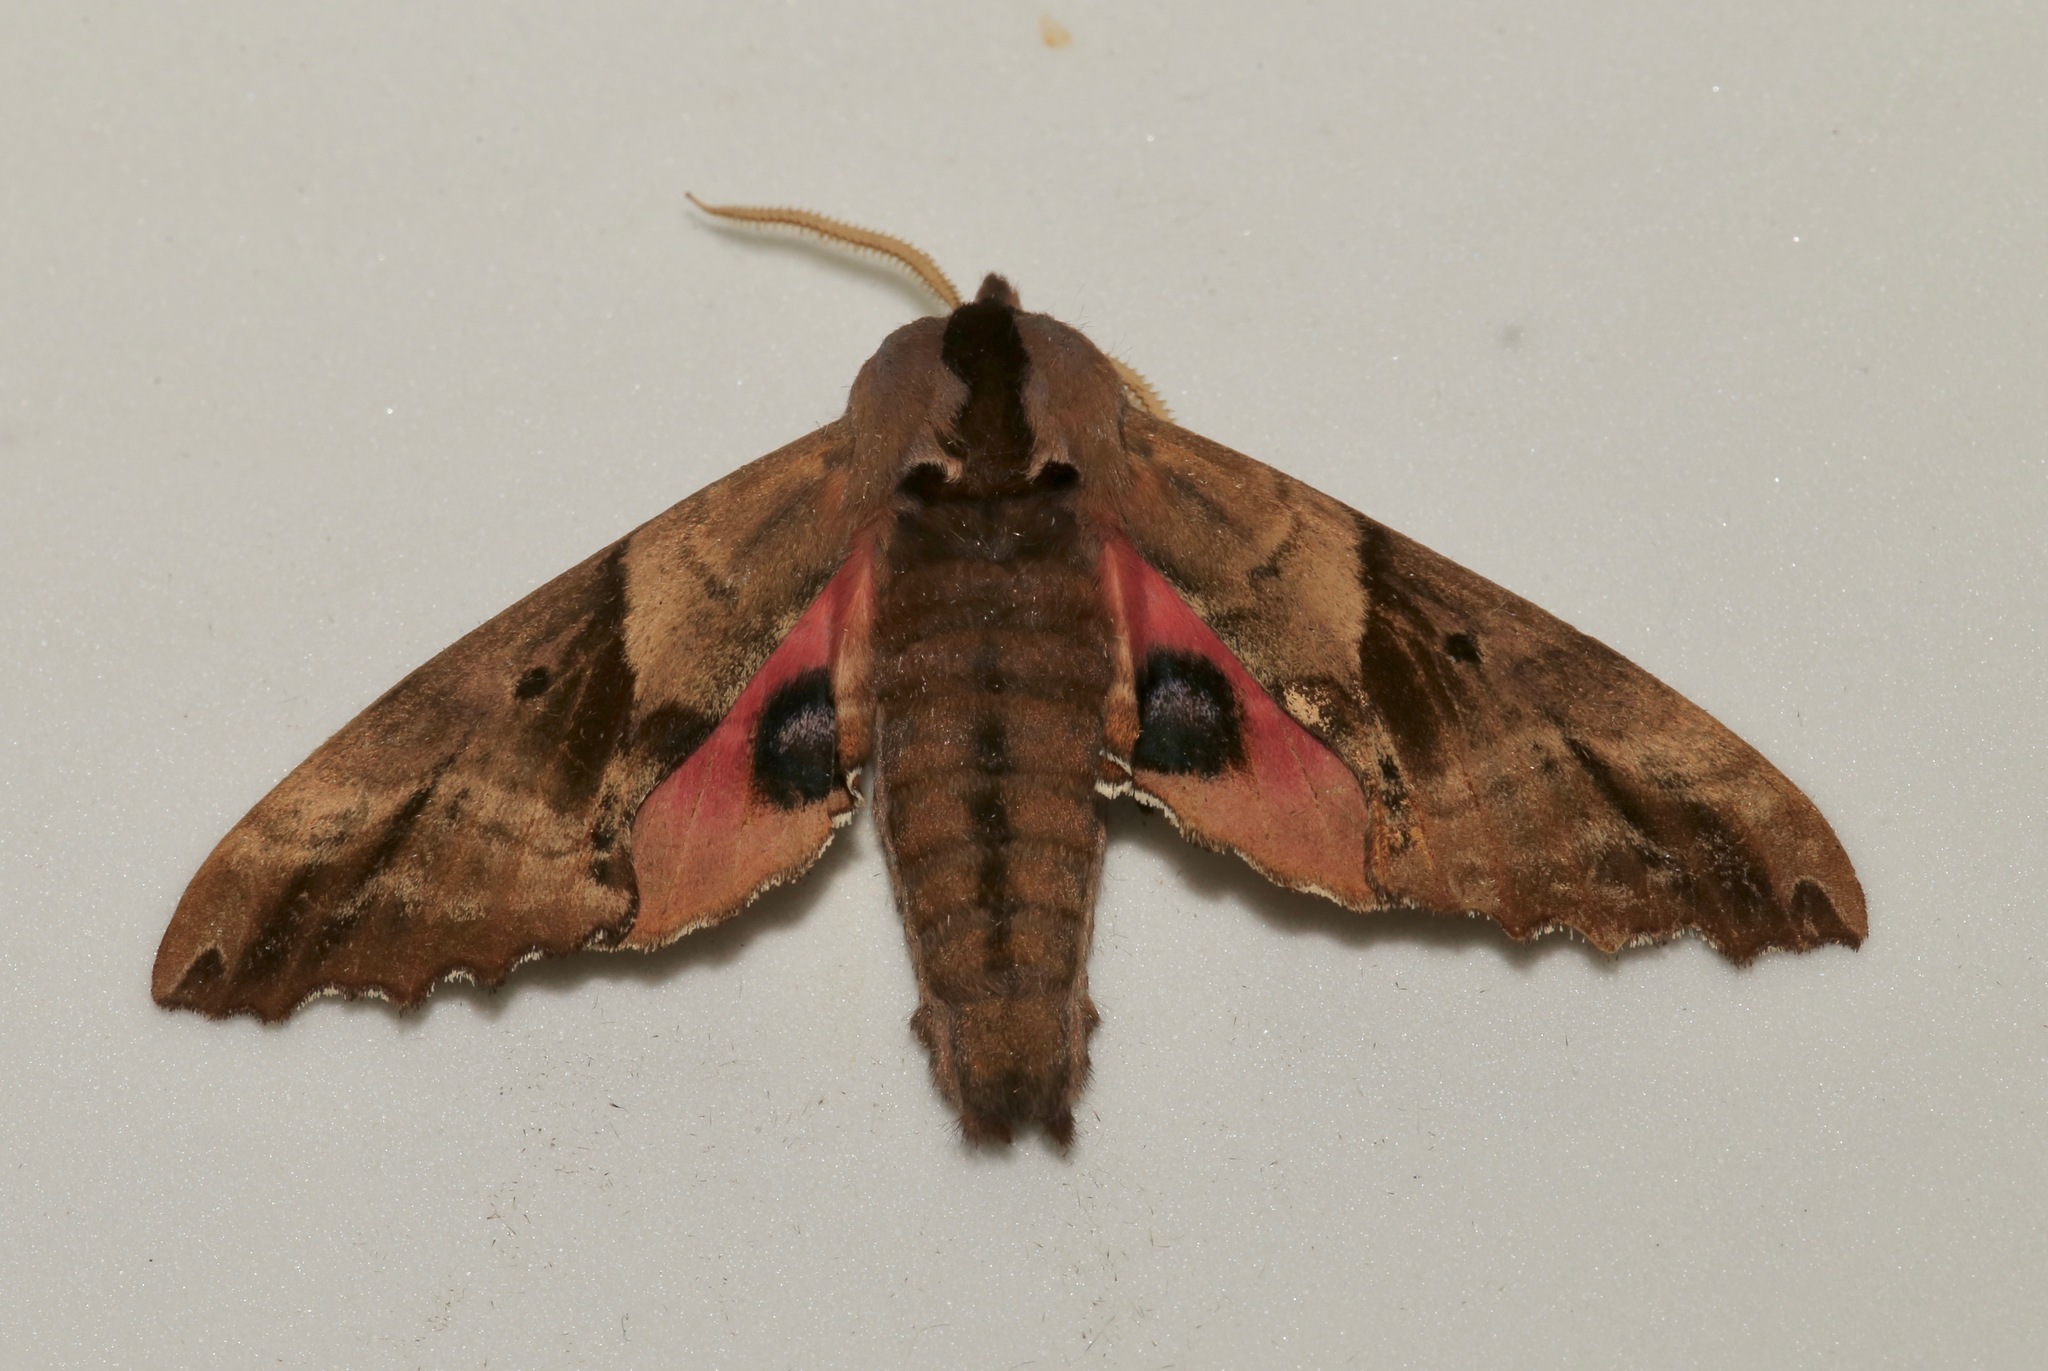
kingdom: Animalia
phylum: Arthropoda
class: Insecta
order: Lepidoptera
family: Sphingidae
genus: Paonias
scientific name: Paonias excaecata
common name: Blind-eyed sphinx
